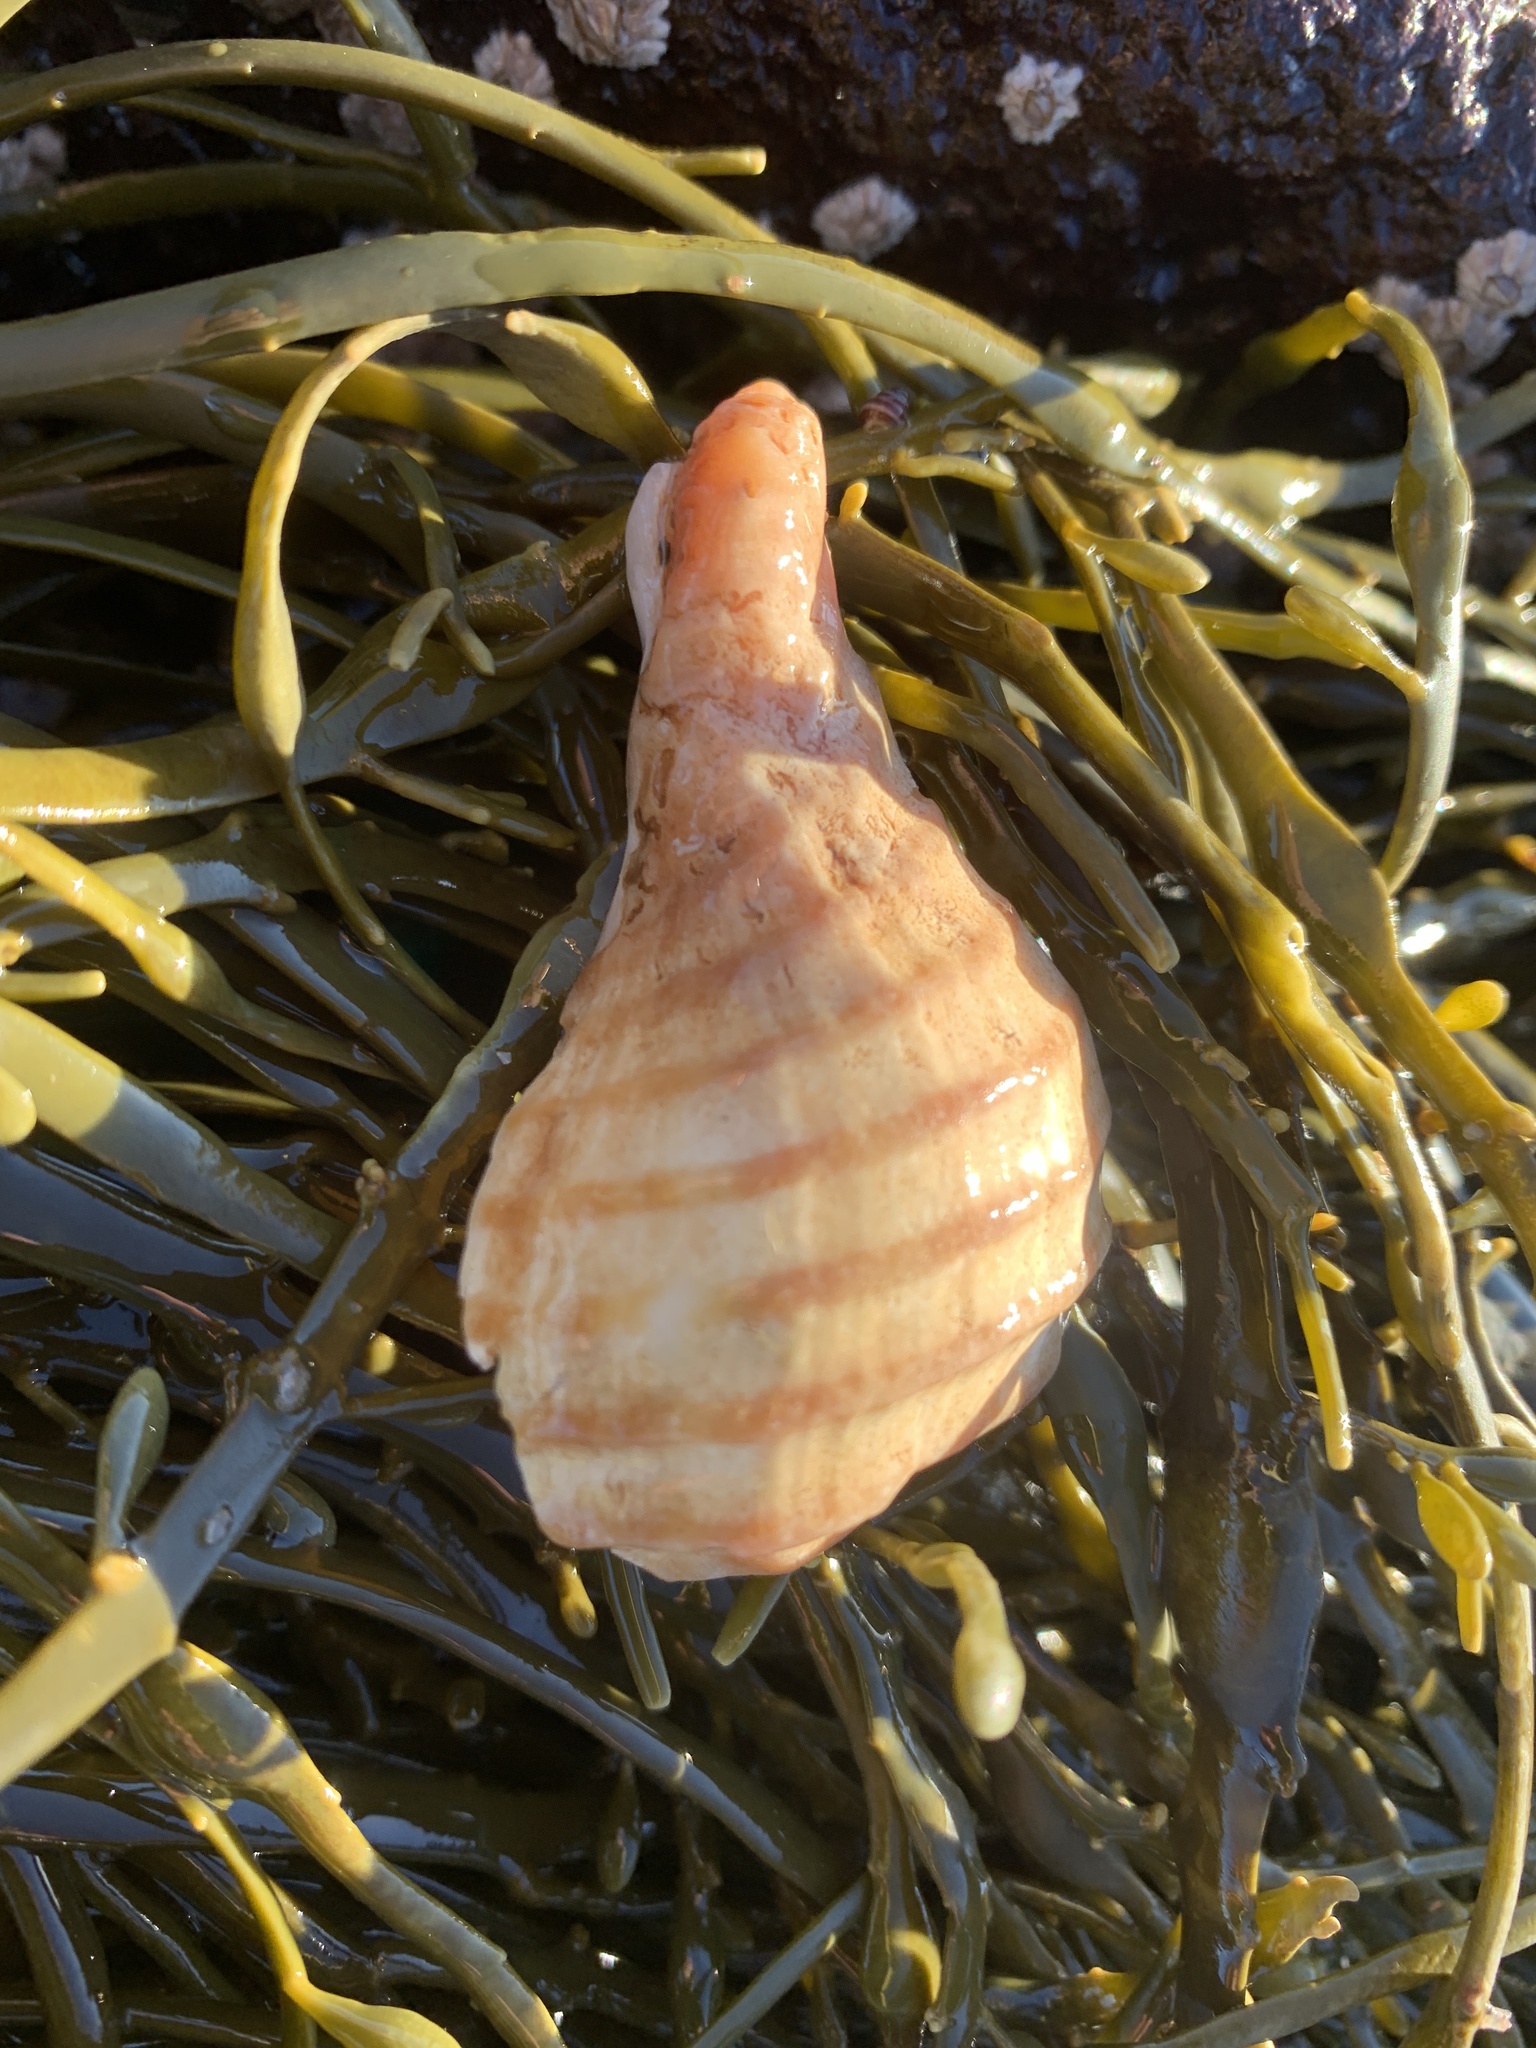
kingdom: Animalia
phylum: Mollusca
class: Gastropoda
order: Neogastropoda
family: Buccinidae
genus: Neptunea
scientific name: Neptunea decemcostata
